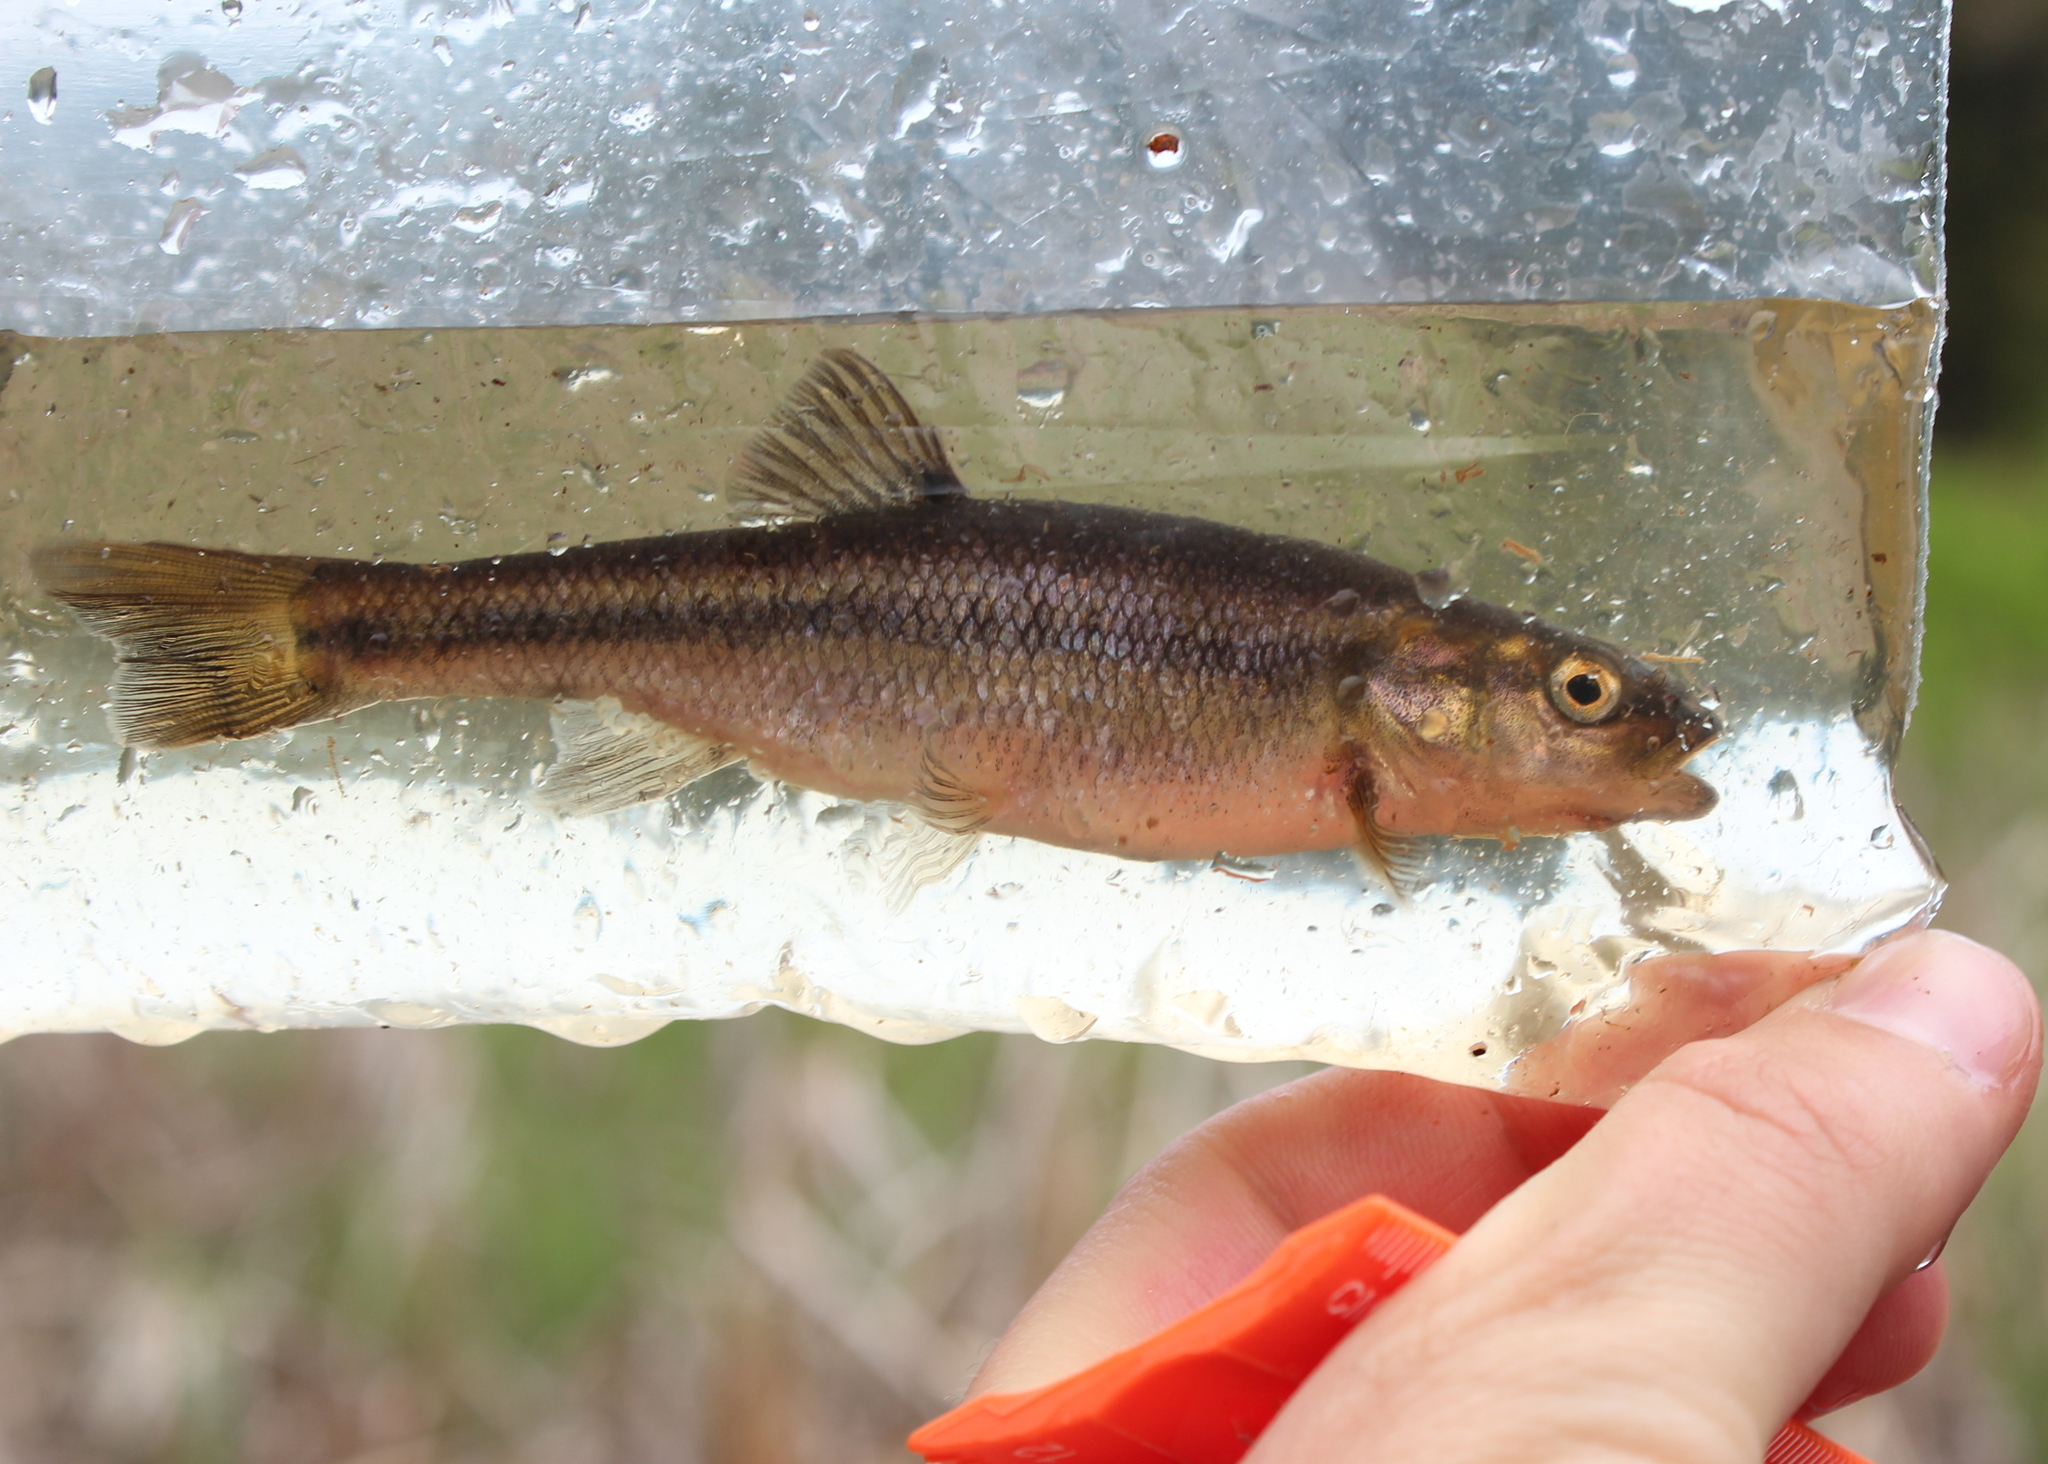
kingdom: Animalia
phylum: Chordata
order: Cypriniformes
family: Cyprinidae
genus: Semotilus
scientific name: Semotilus atromaculatus
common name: Creek chub
